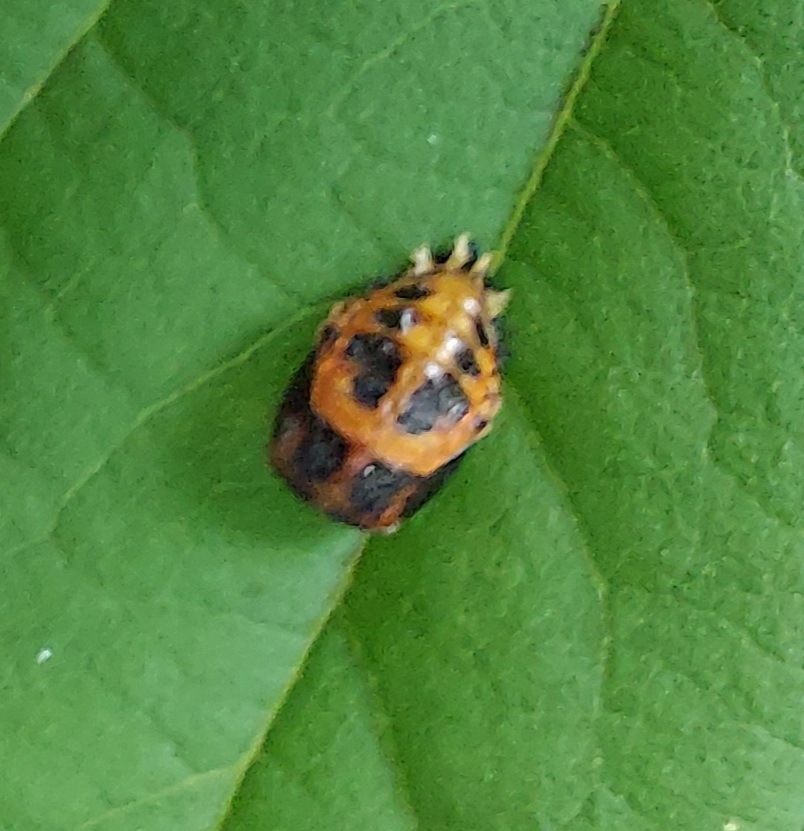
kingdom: Animalia
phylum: Arthropoda
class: Insecta
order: Coleoptera
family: Coccinellidae
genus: Harmonia
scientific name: Harmonia axyridis
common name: Harlequin ladybird
